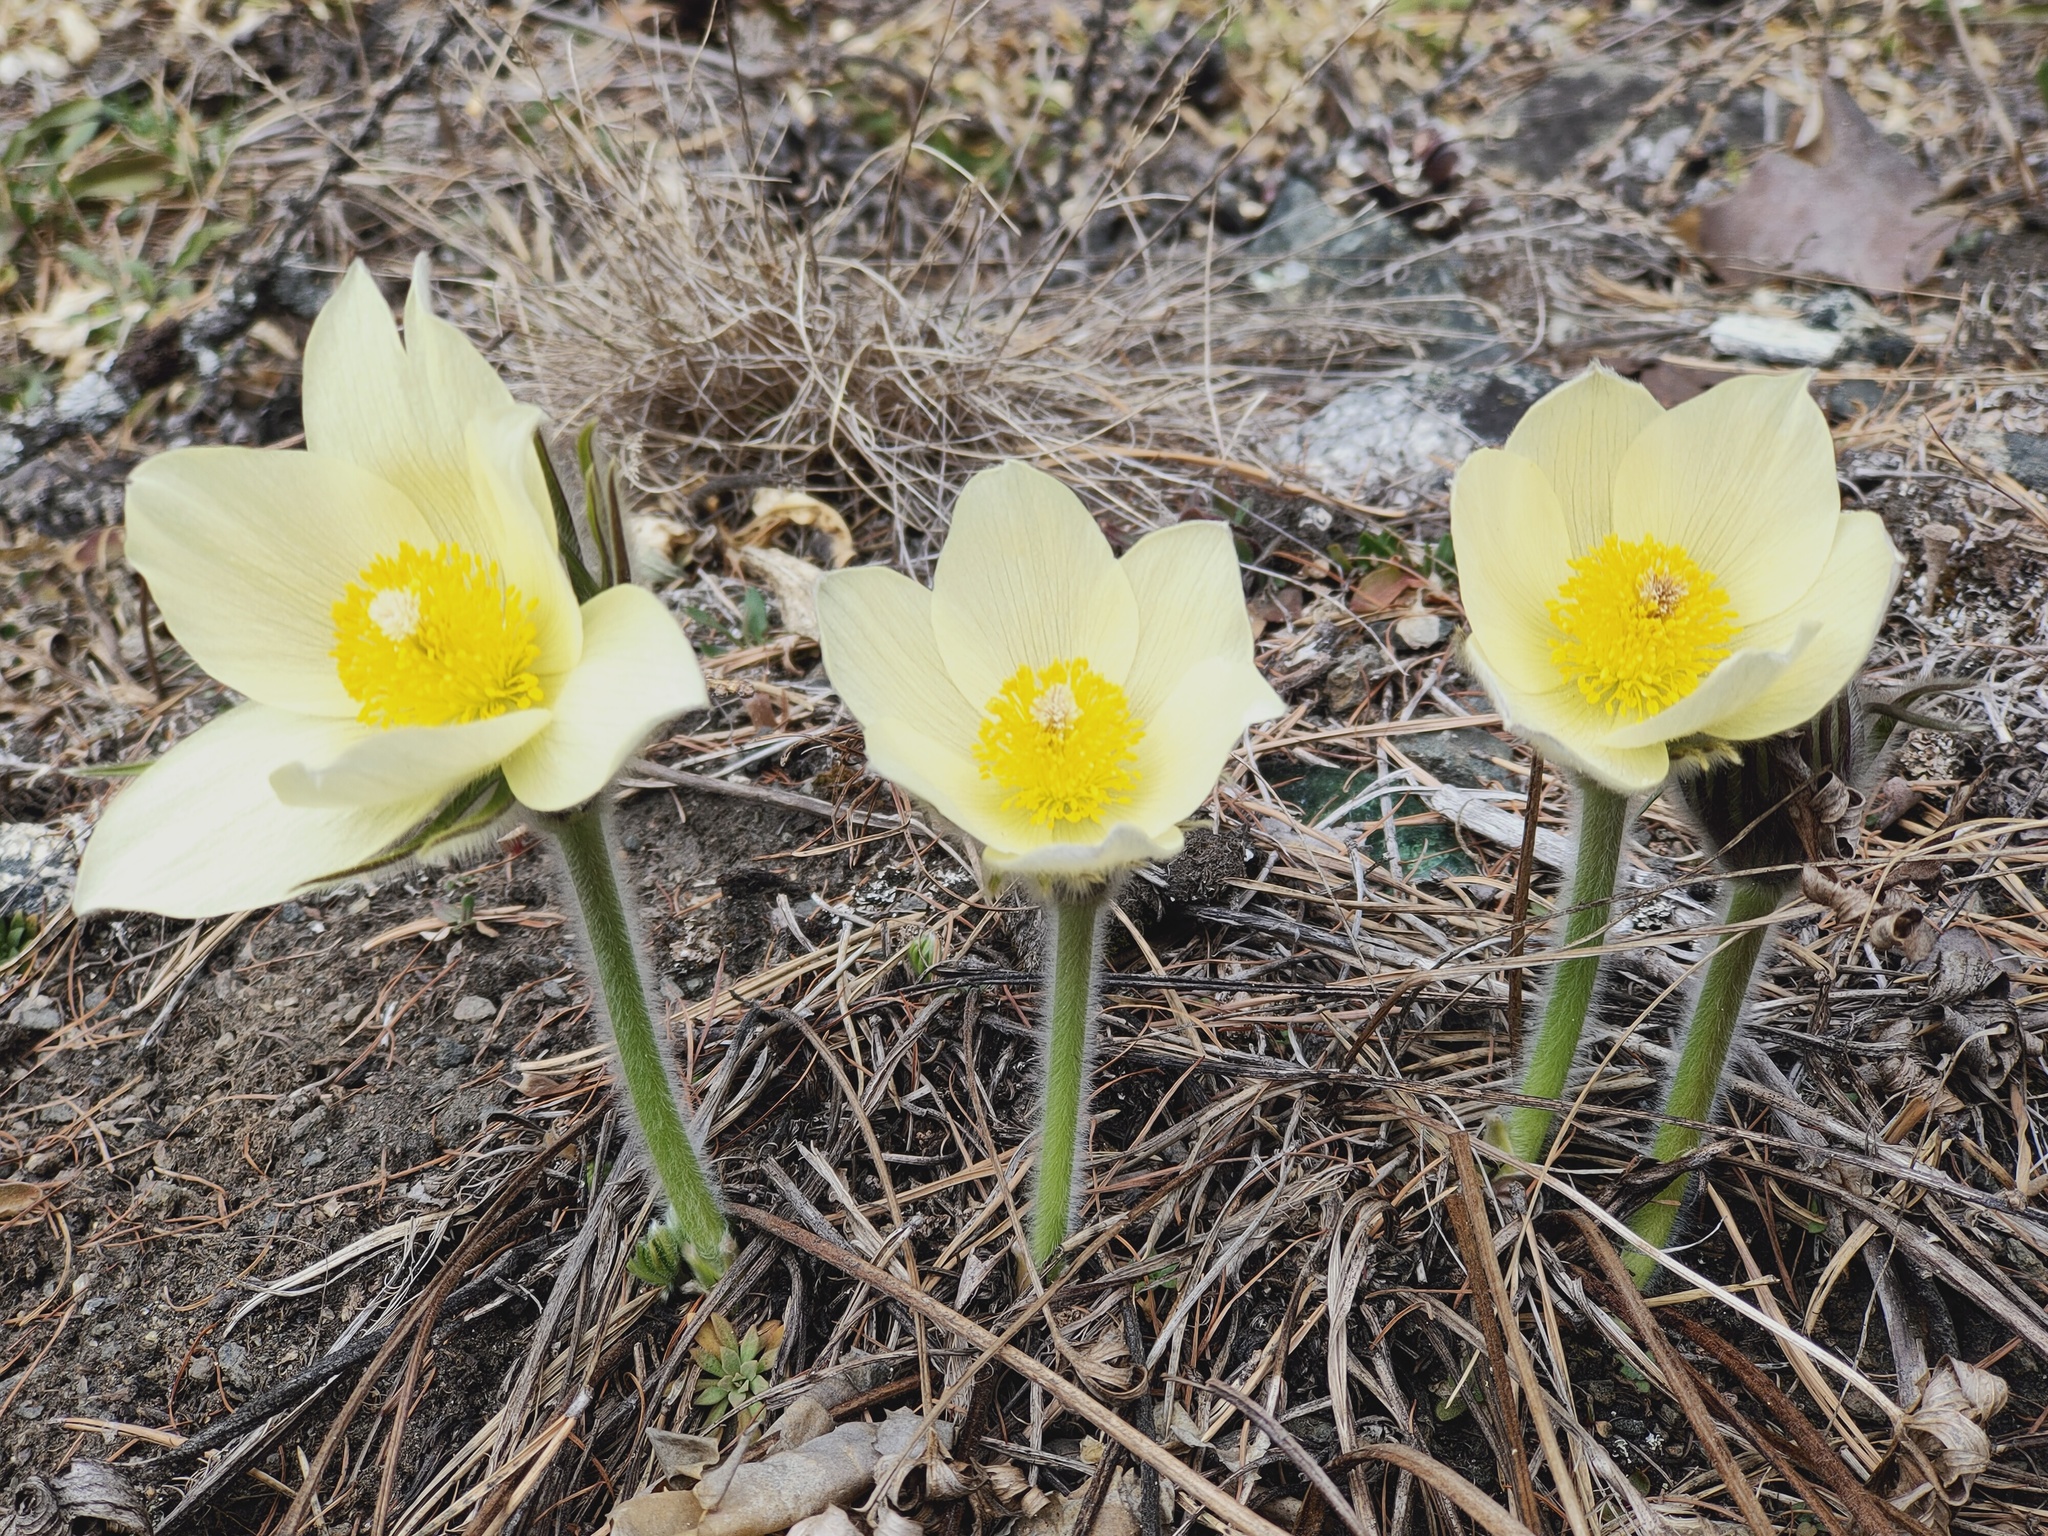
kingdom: Plantae
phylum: Tracheophyta
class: Magnoliopsida
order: Ranunculales
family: Ranunculaceae
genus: Pulsatilla
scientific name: Pulsatilla patens
